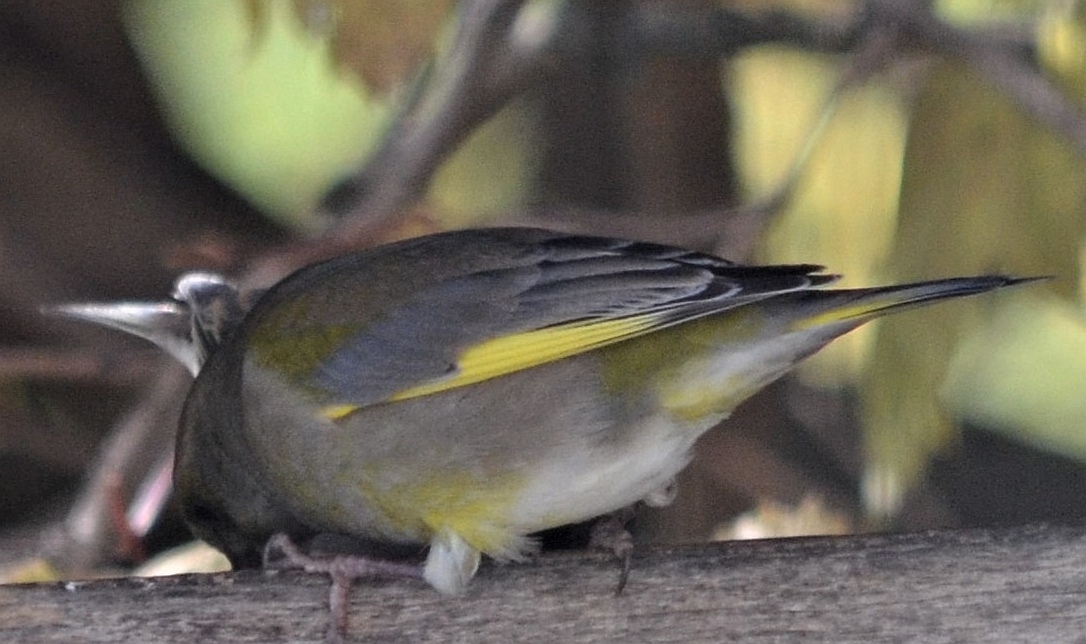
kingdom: Plantae
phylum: Tracheophyta
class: Liliopsida
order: Poales
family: Poaceae
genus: Chloris
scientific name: Chloris chloris
